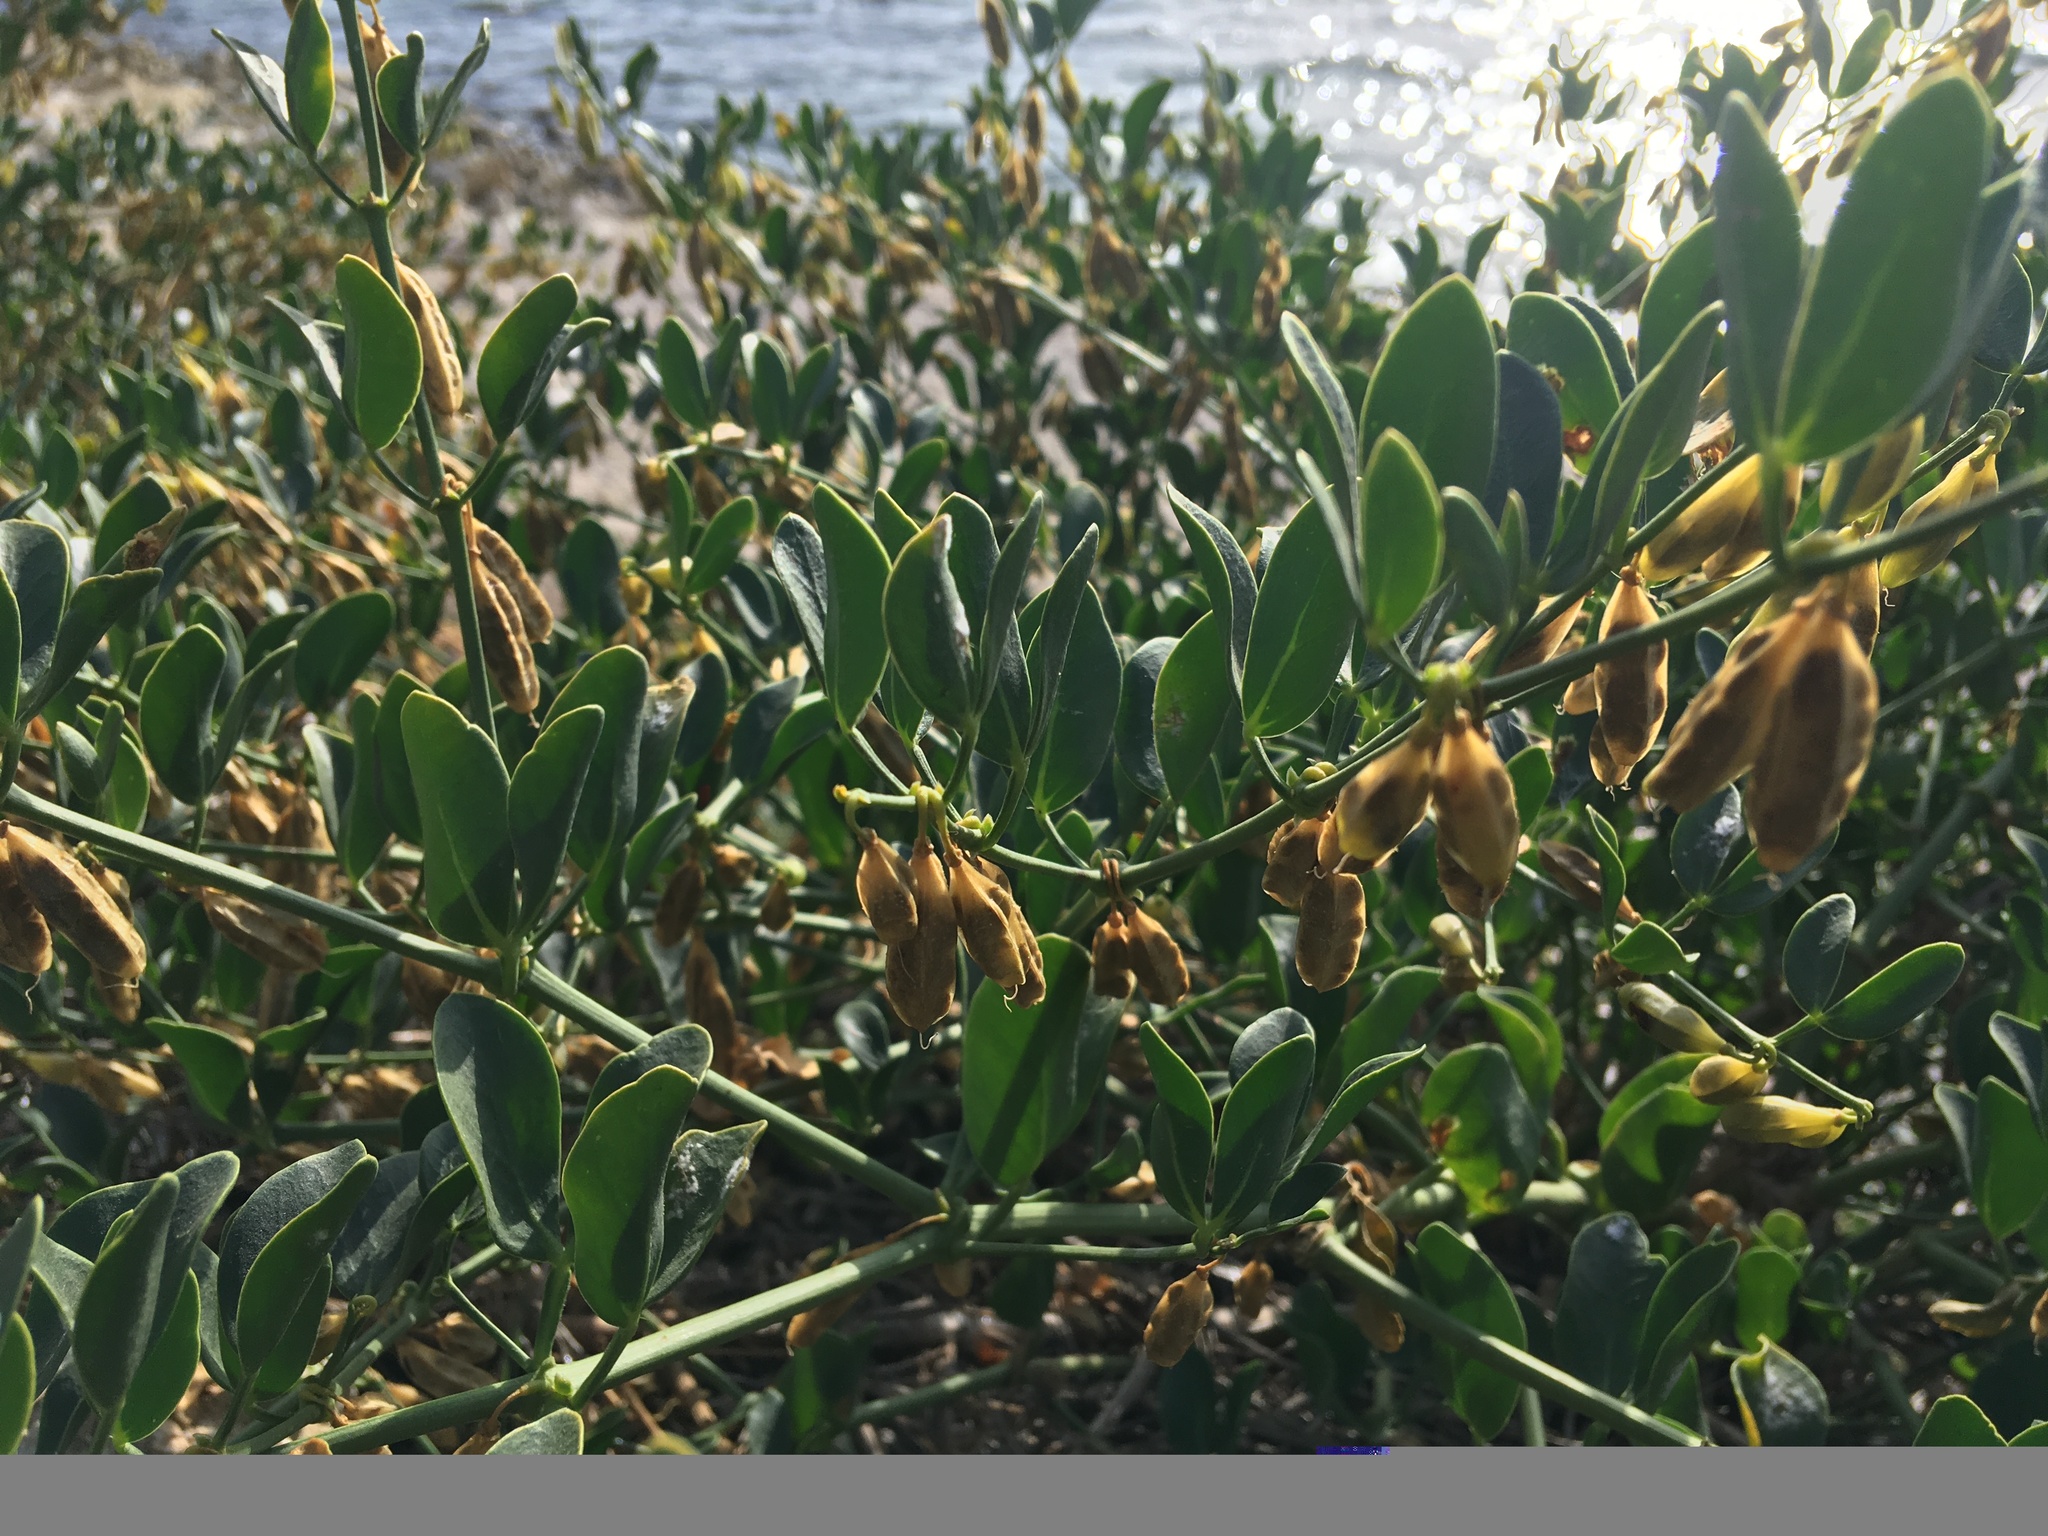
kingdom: Plantae
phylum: Tracheophyta
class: Magnoliopsida
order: Zygophyllales
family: Zygophyllaceae
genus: Zygophyllum
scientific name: Zygophyllum fabago
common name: Syrian beancaper
